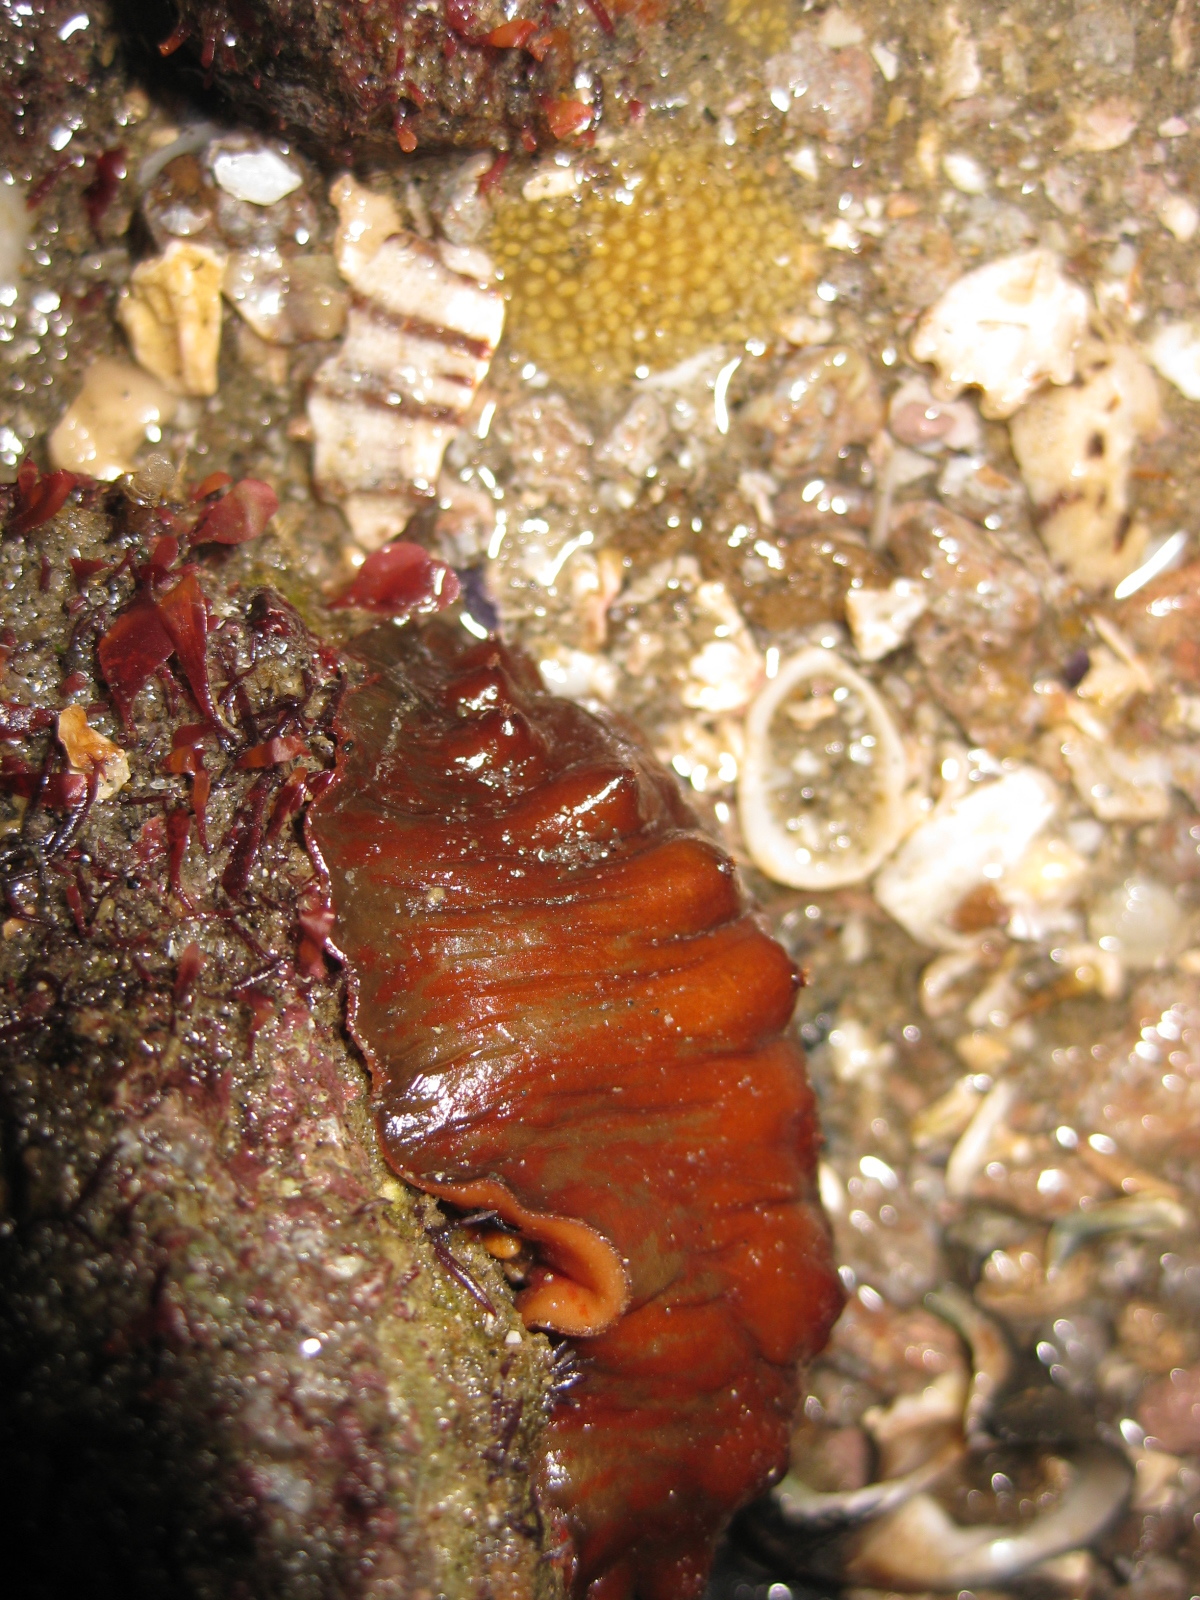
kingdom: Animalia
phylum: Mollusca
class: Polyplacophora
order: Chitonida
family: Acanthochitonidae
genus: Cryptoconchus
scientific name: Cryptoconchus porosus
